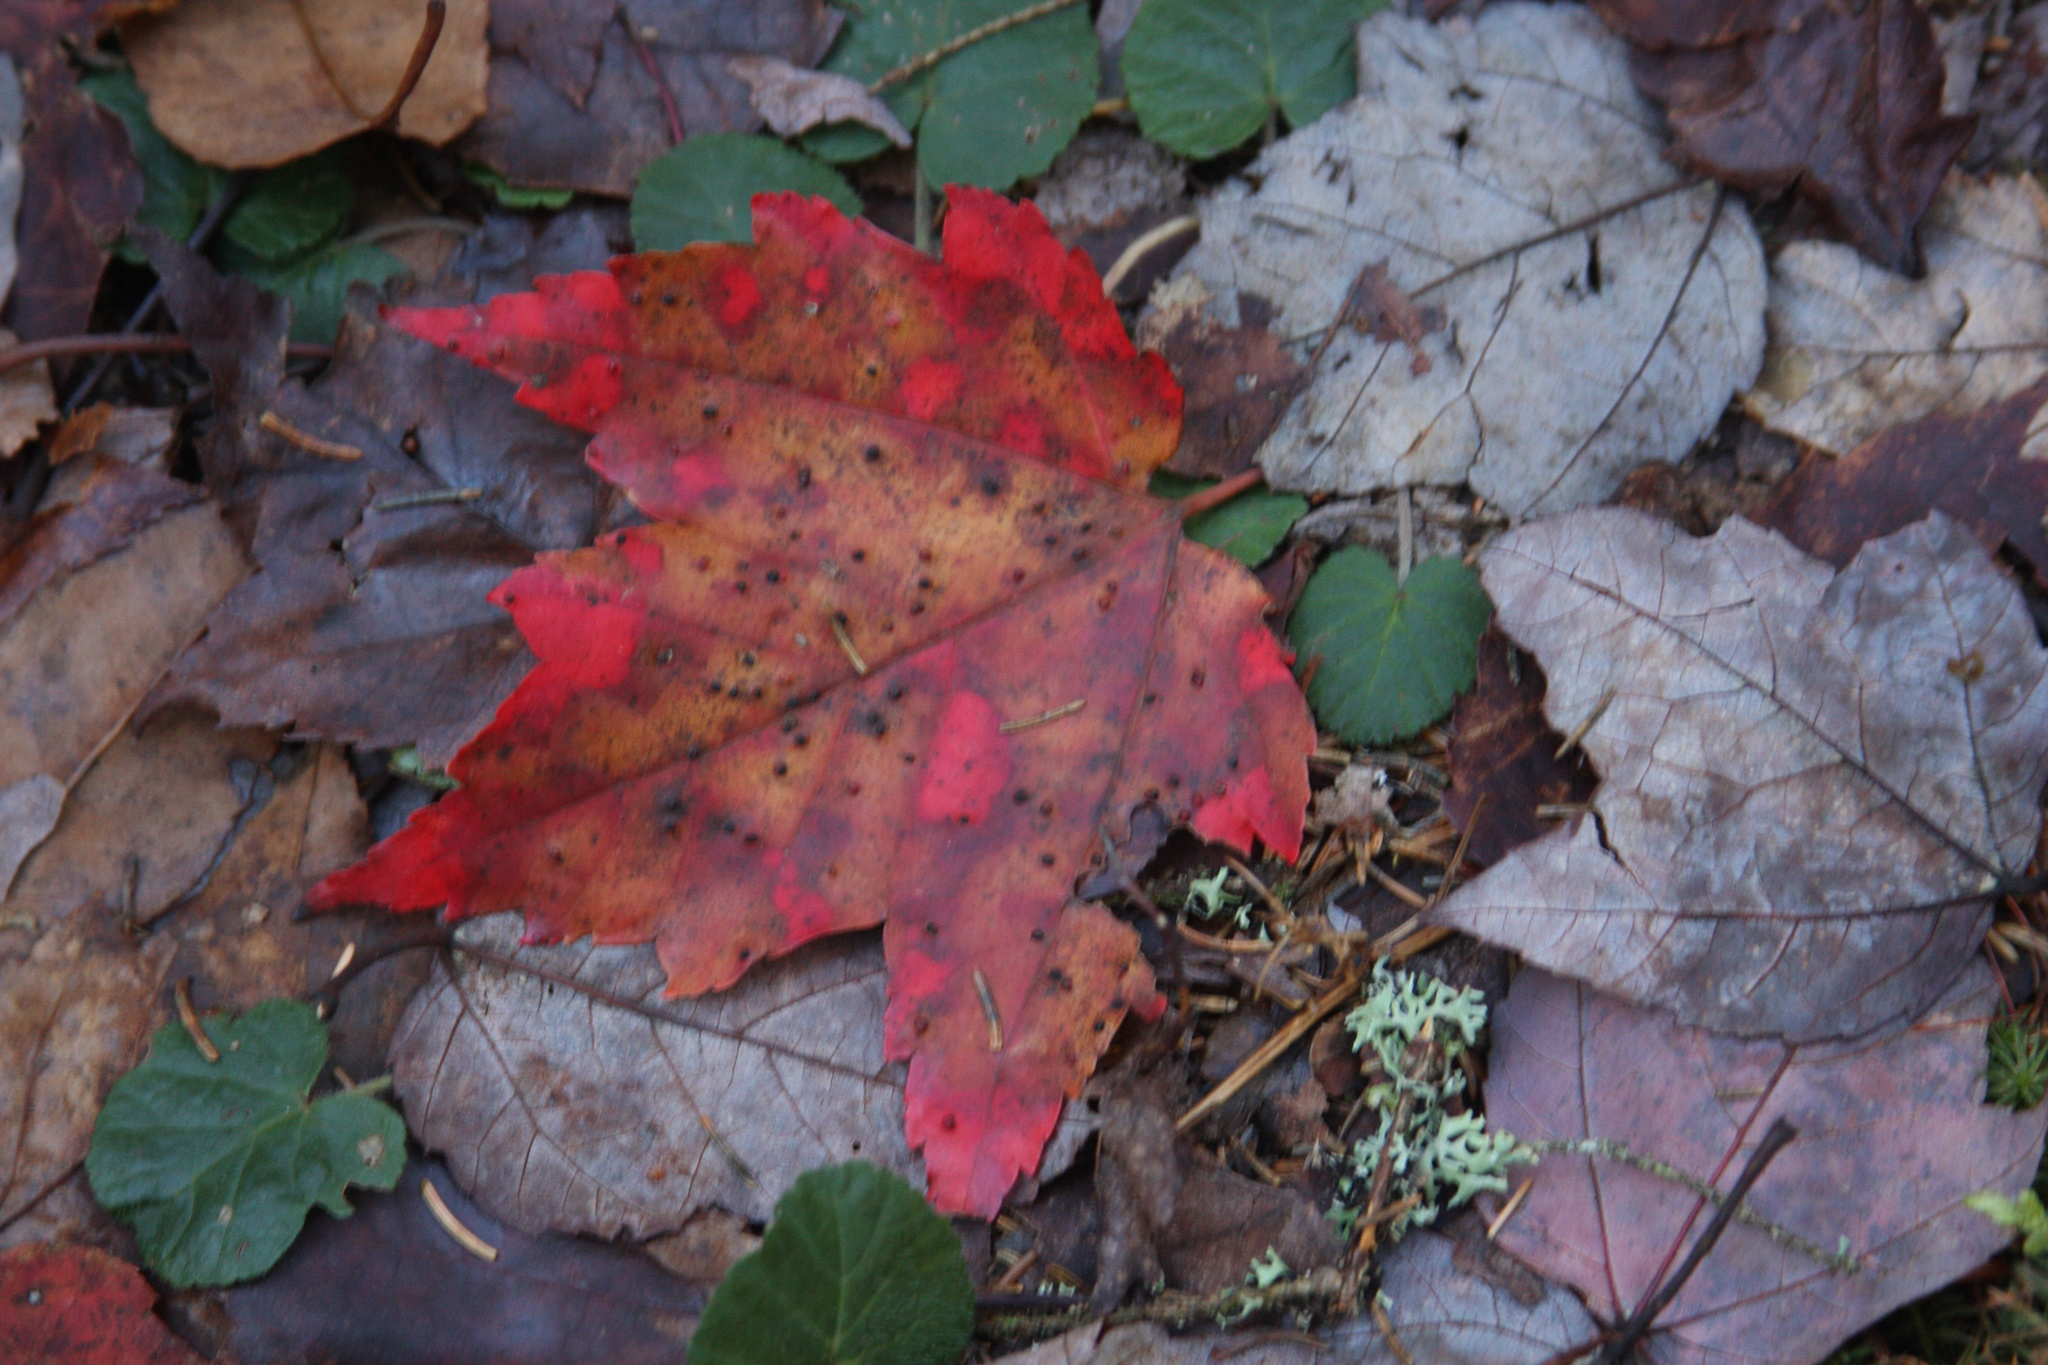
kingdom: Plantae
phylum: Tracheophyta
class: Magnoliopsida
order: Rosales
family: Rosaceae
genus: Dalibarda
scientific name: Dalibarda repens
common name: Dewdrop
